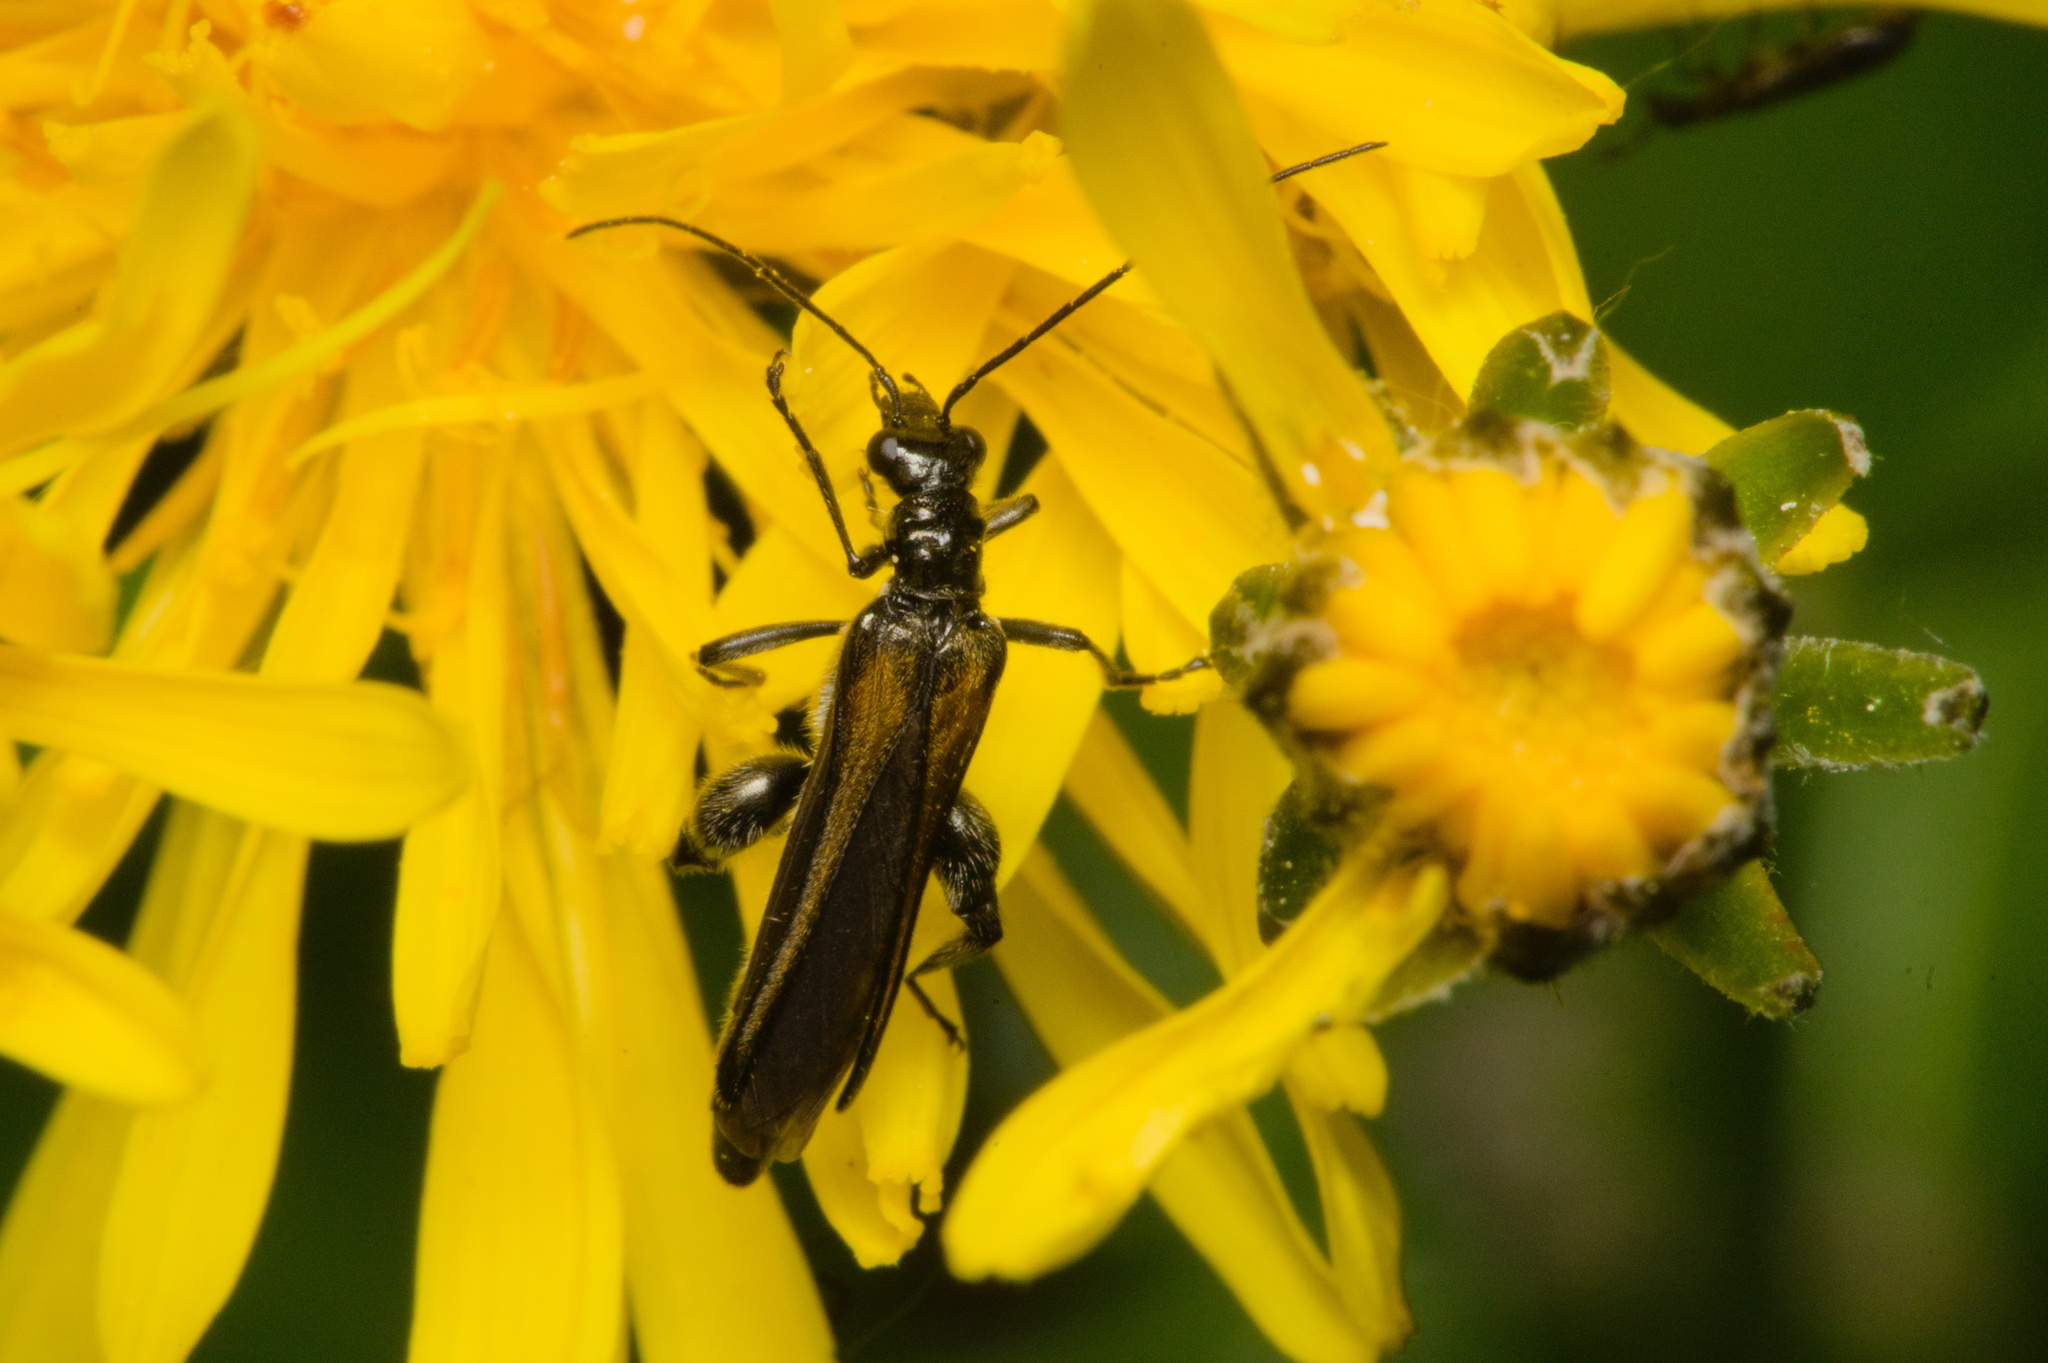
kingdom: Animalia
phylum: Arthropoda
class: Insecta
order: Coleoptera
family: Oedemeridae
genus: Oedemera
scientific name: Oedemera pthysica
